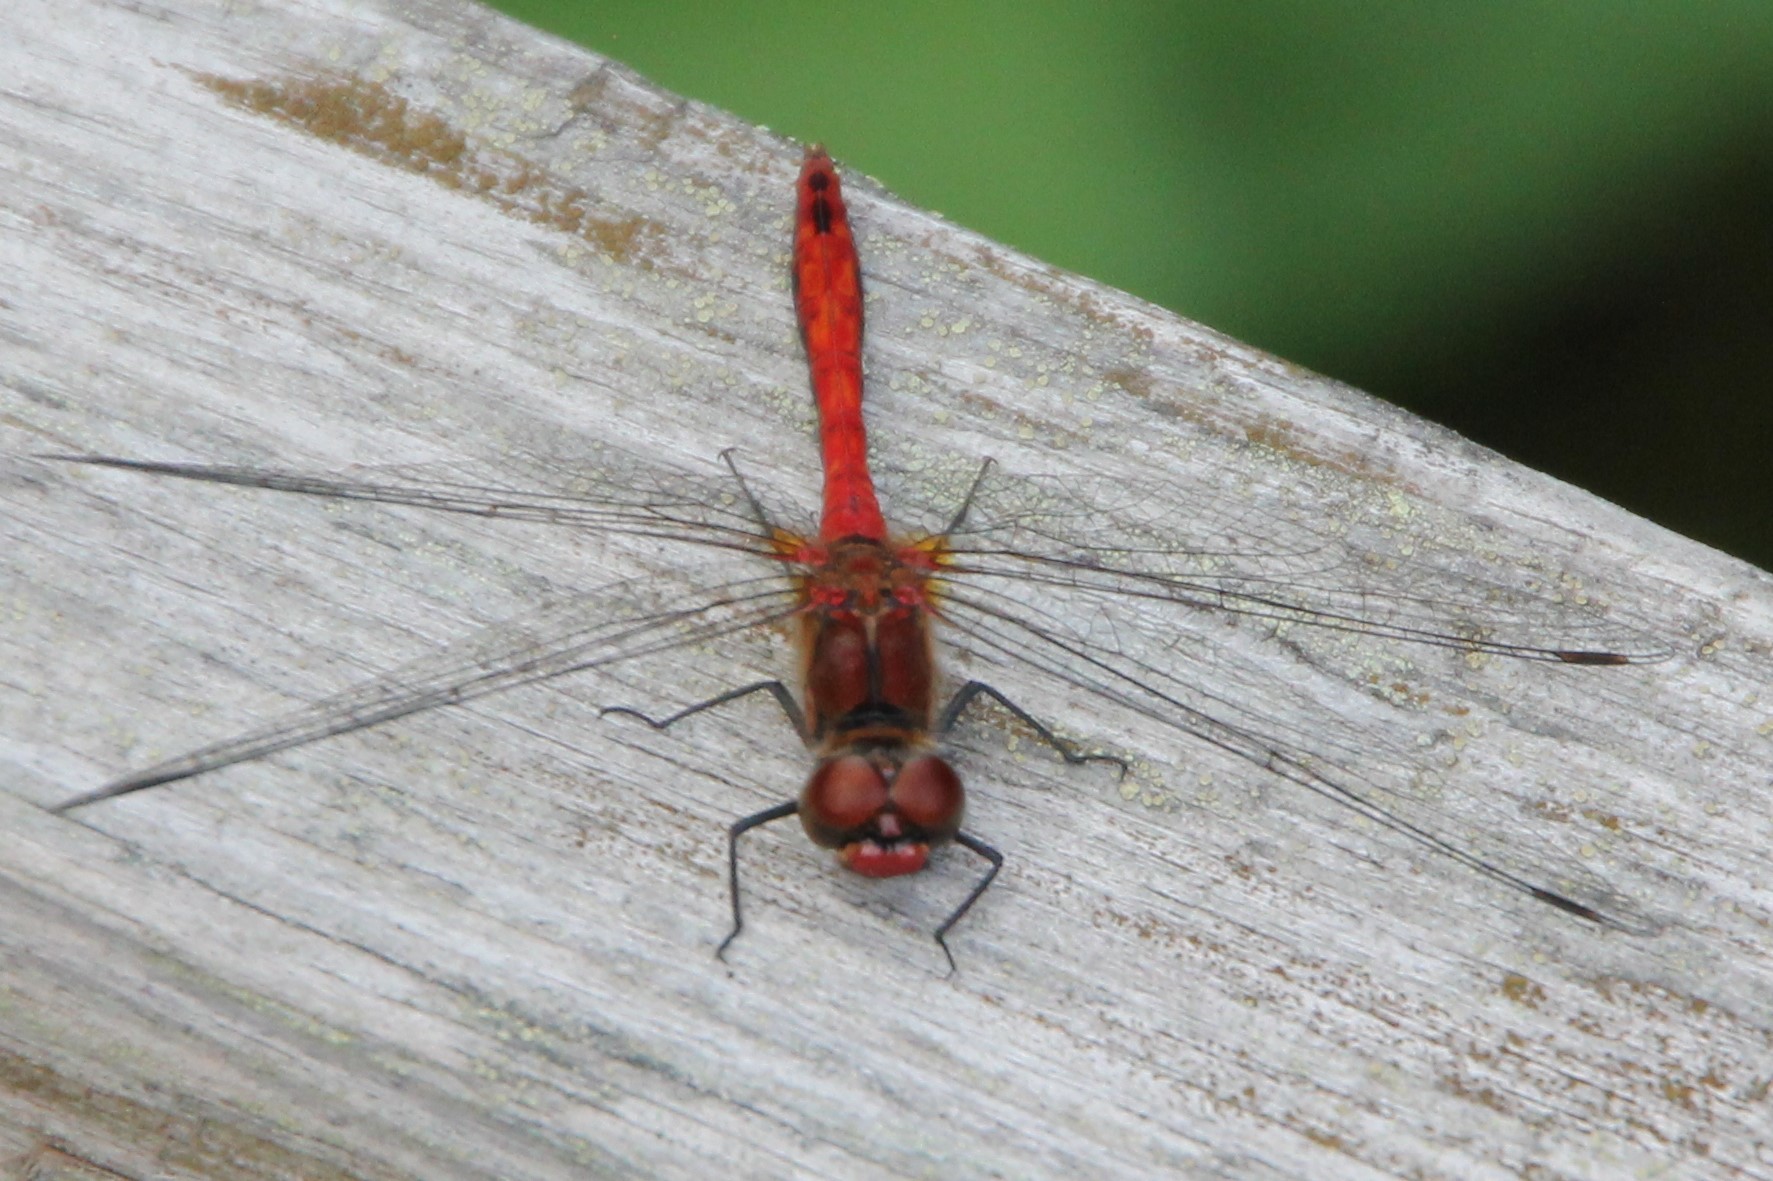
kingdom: Animalia
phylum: Arthropoda
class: Insecta
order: Odonata
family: Libellulidae
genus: Sympetrum
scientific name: Sympetrum sanguineum
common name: Ruddy darter
